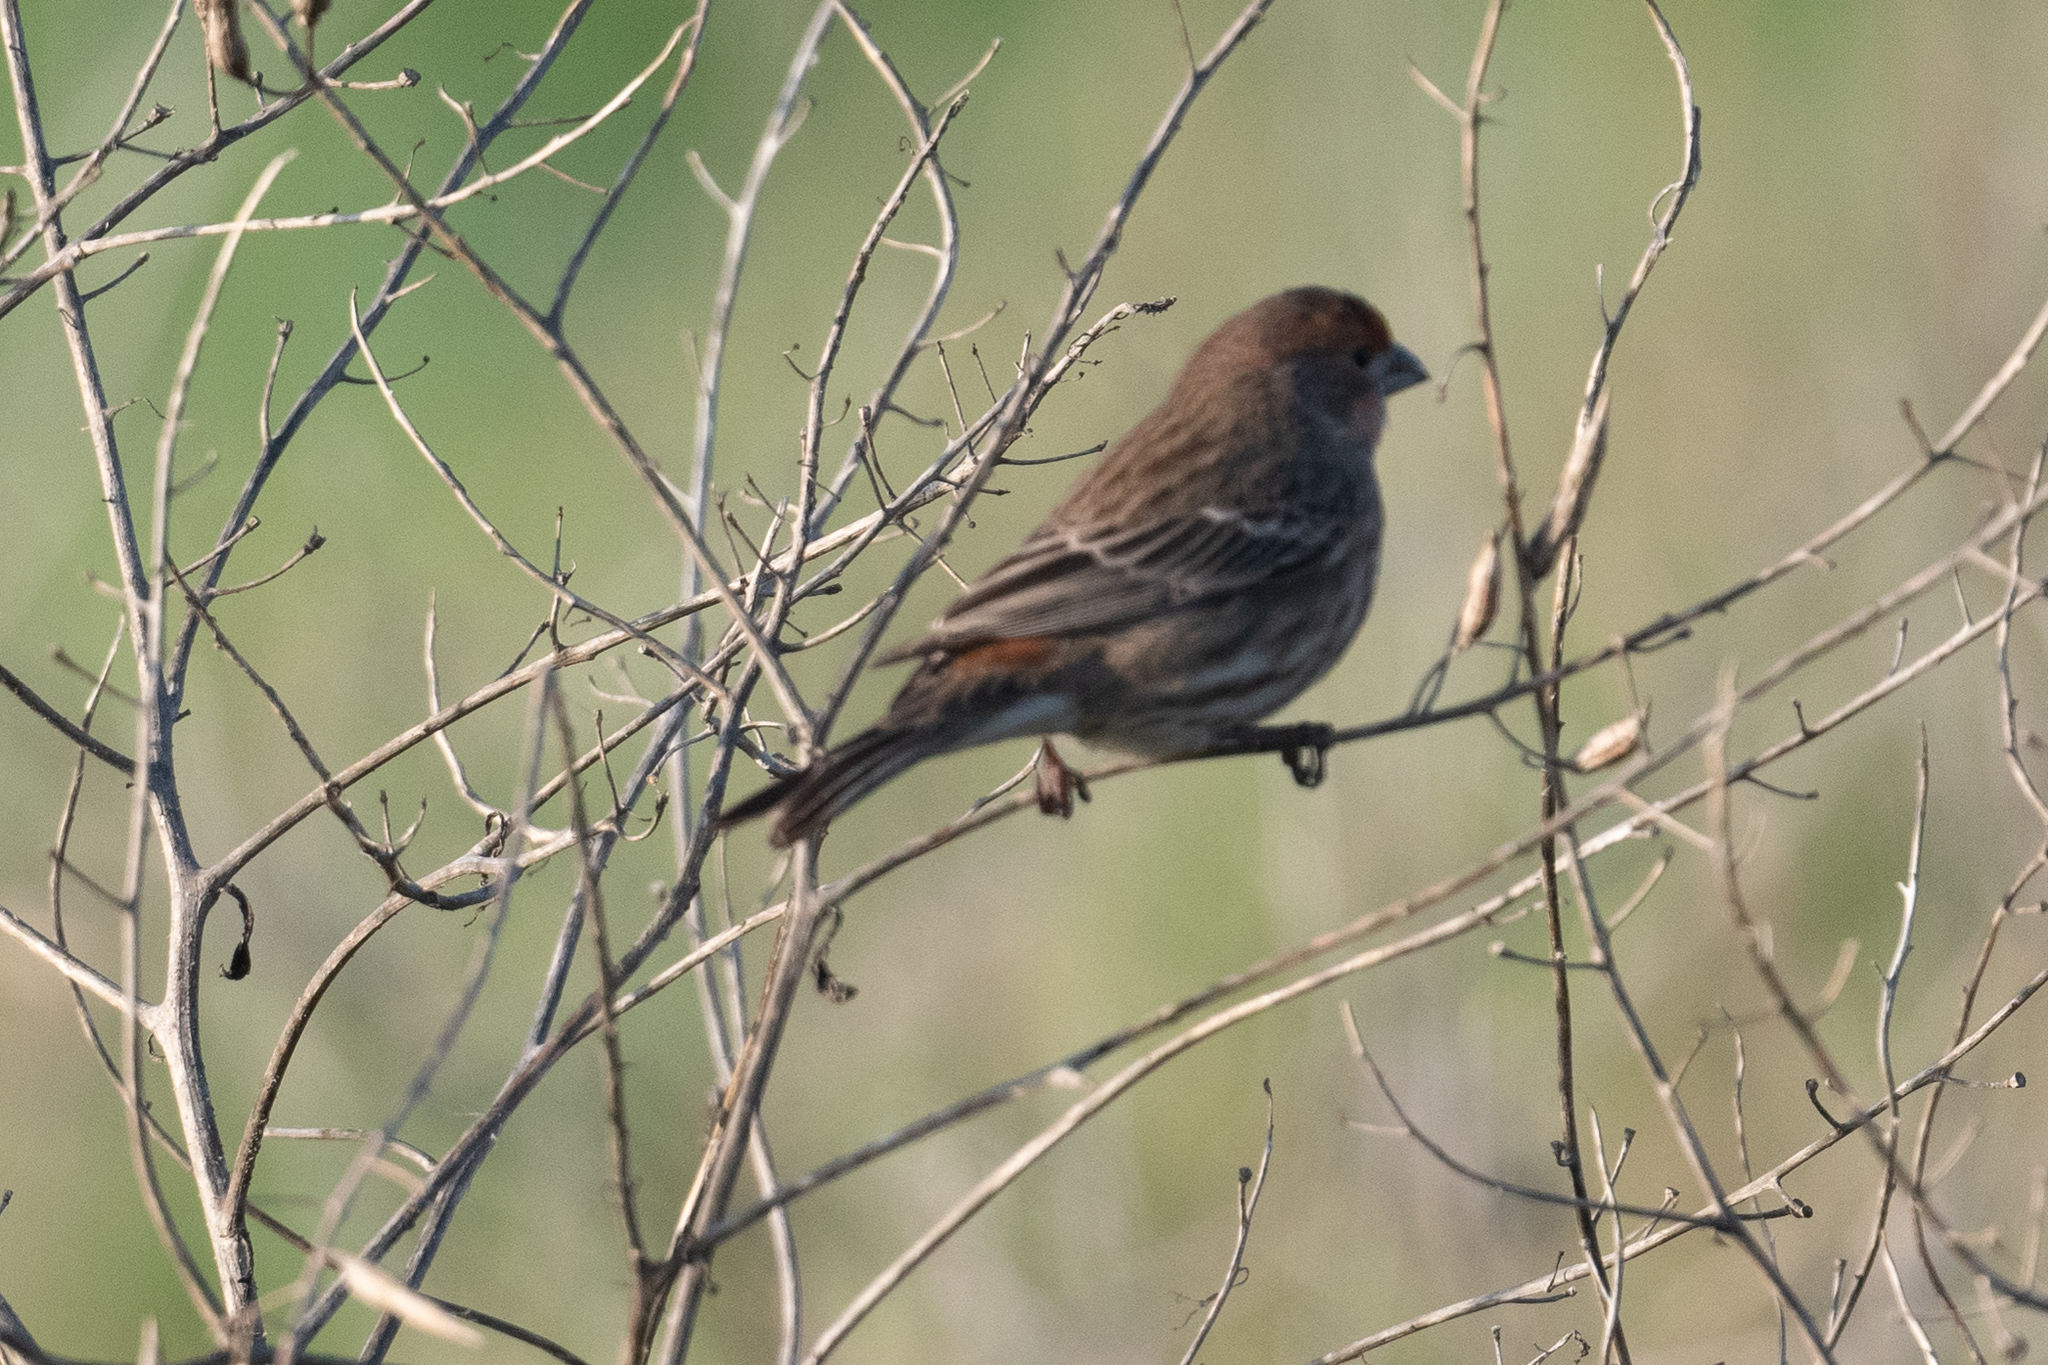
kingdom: Animalia
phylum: Chordata
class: Aves
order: Passeriformes
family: Fringillidae
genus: Haemorhous
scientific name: Haemorhous mexicanus
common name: House finch
